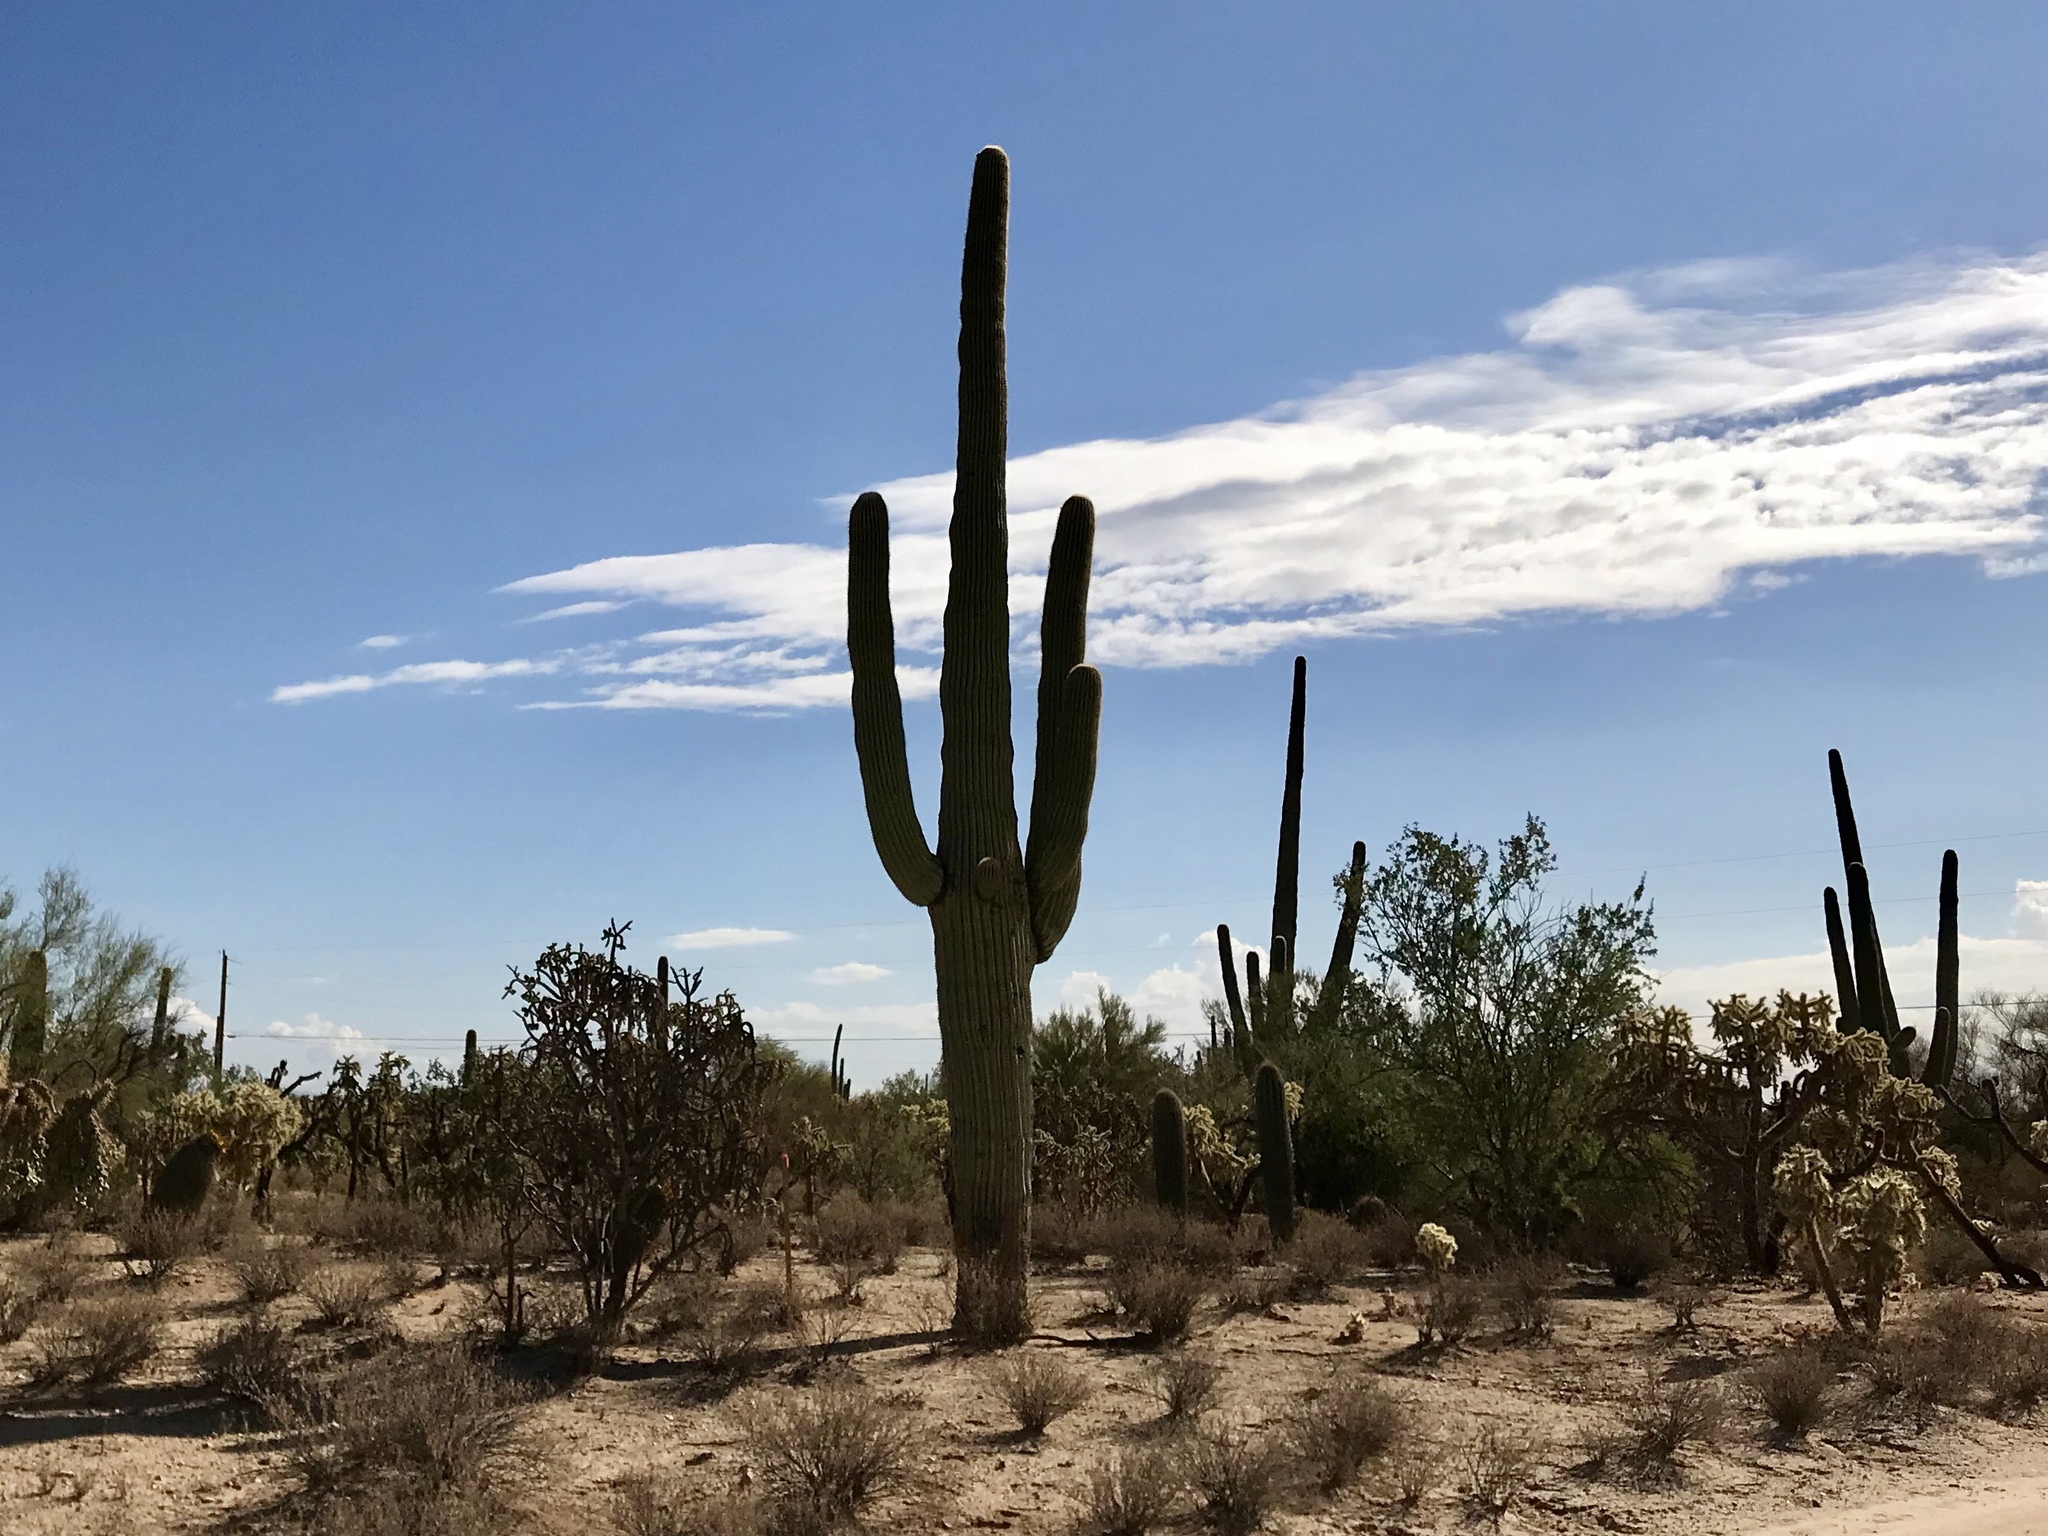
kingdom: Plantae
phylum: Tracheophyta
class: Magnoliopsida
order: Caryophyllales
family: Cactaceae
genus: Carnegiea
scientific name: Carnegiea gigantea
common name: Saguaro
